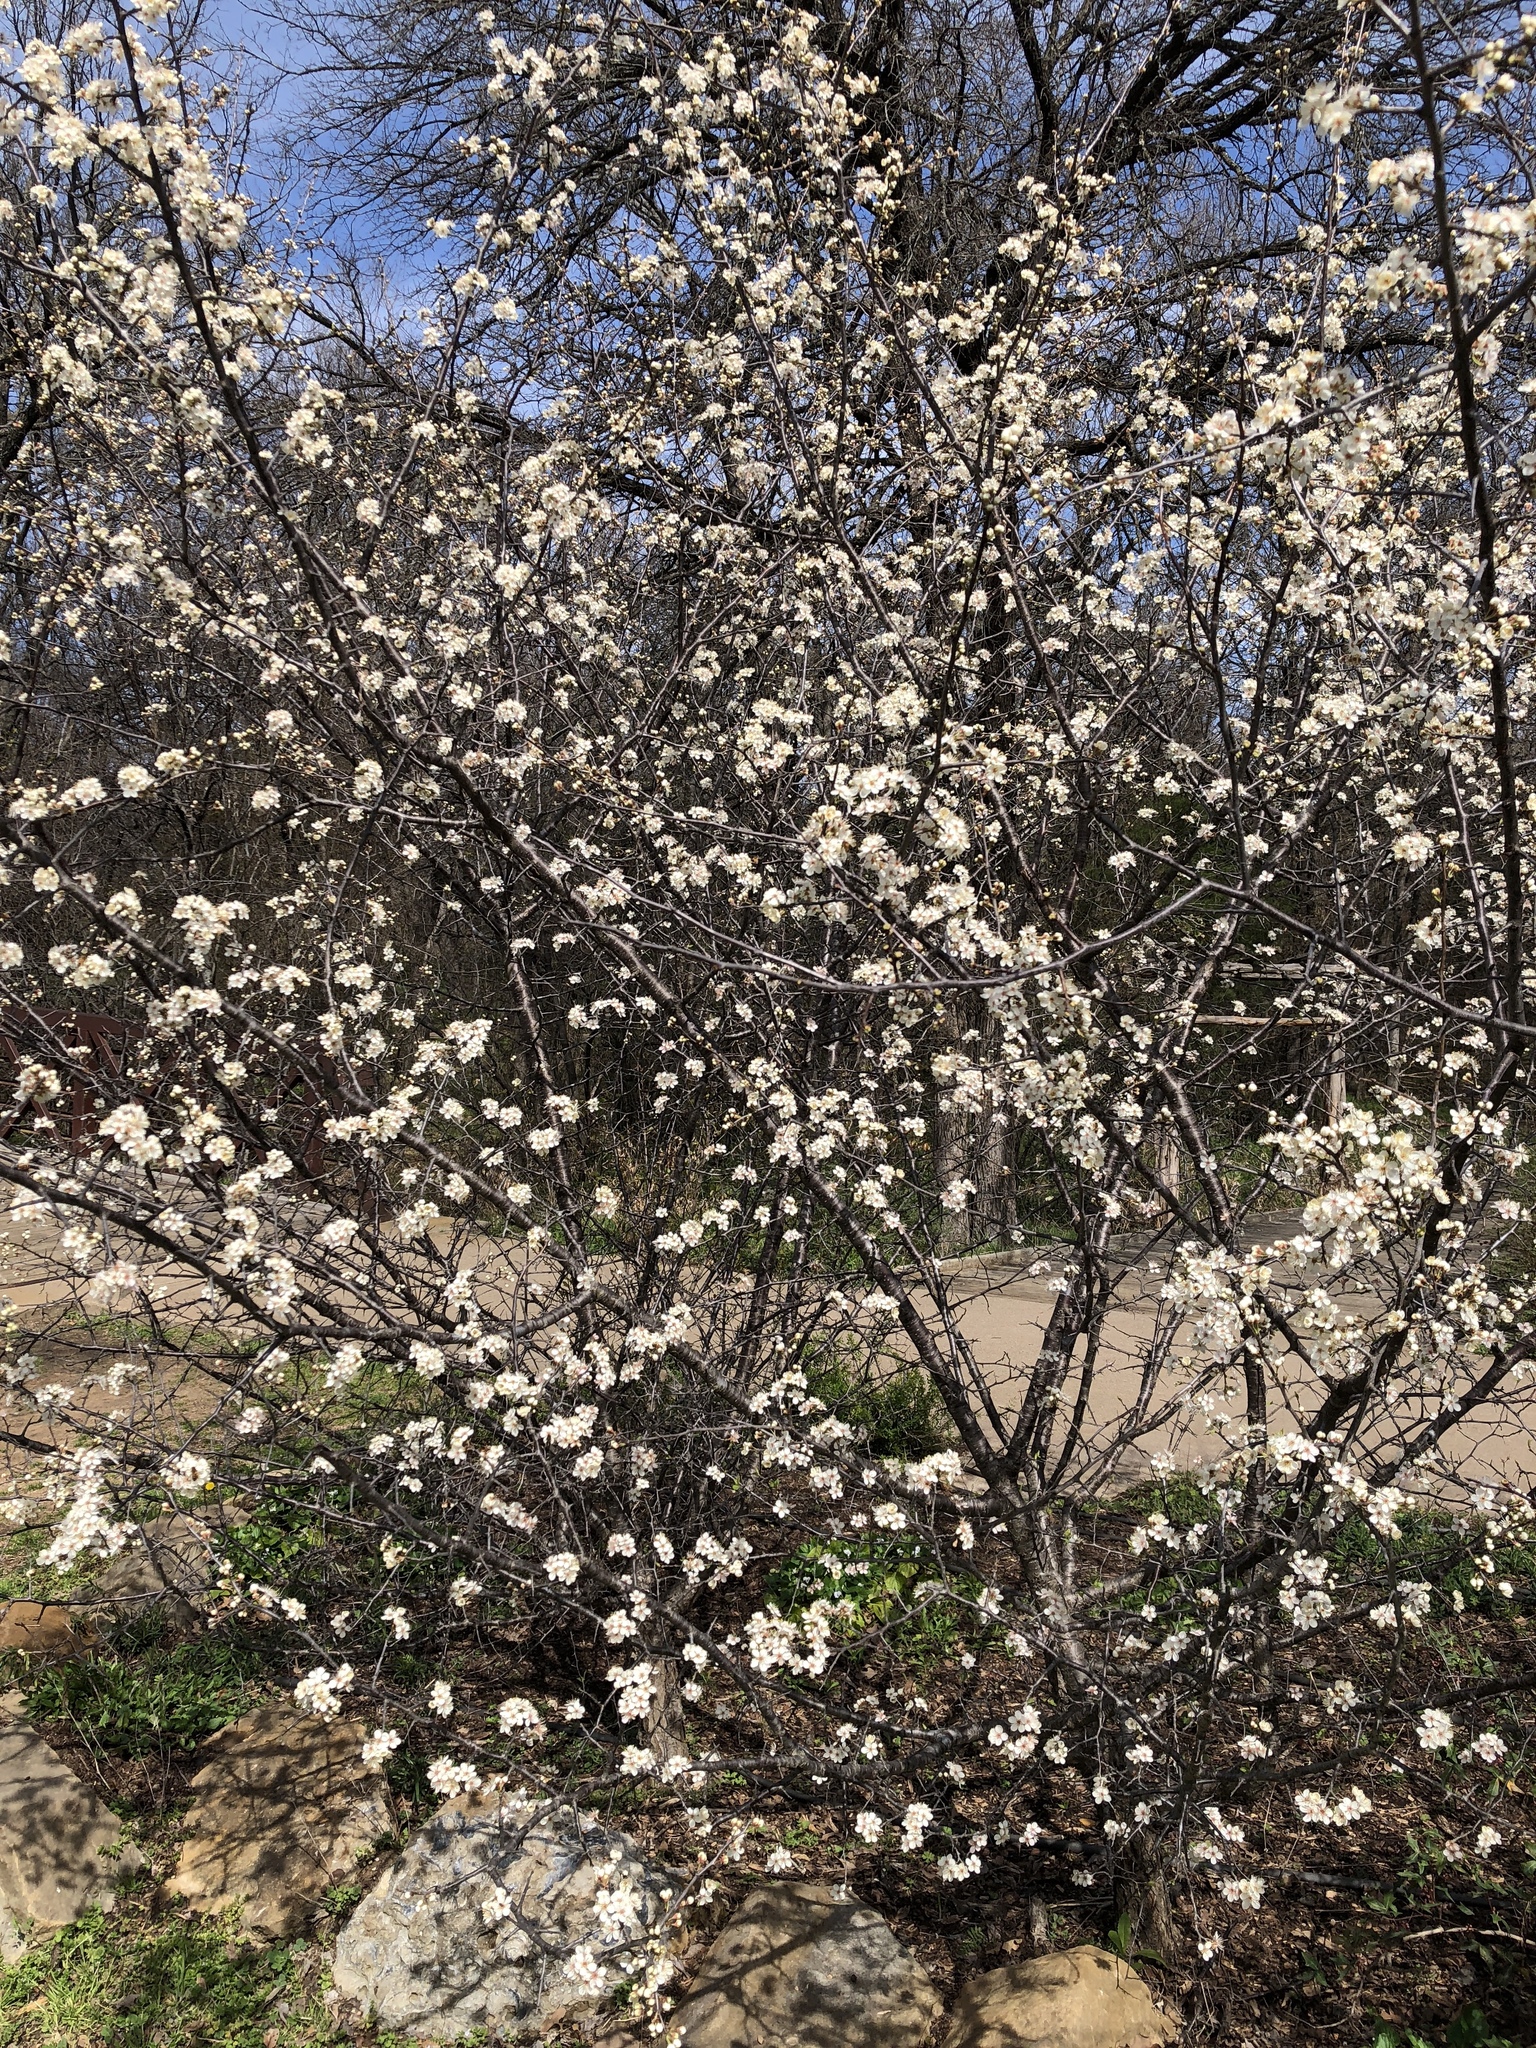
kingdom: Plantae
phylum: Tracheophyta
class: Magnoliopsida
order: Rosales
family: Rosaceae
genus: Prunus
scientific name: Prunus mexicana
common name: Mexican plum
